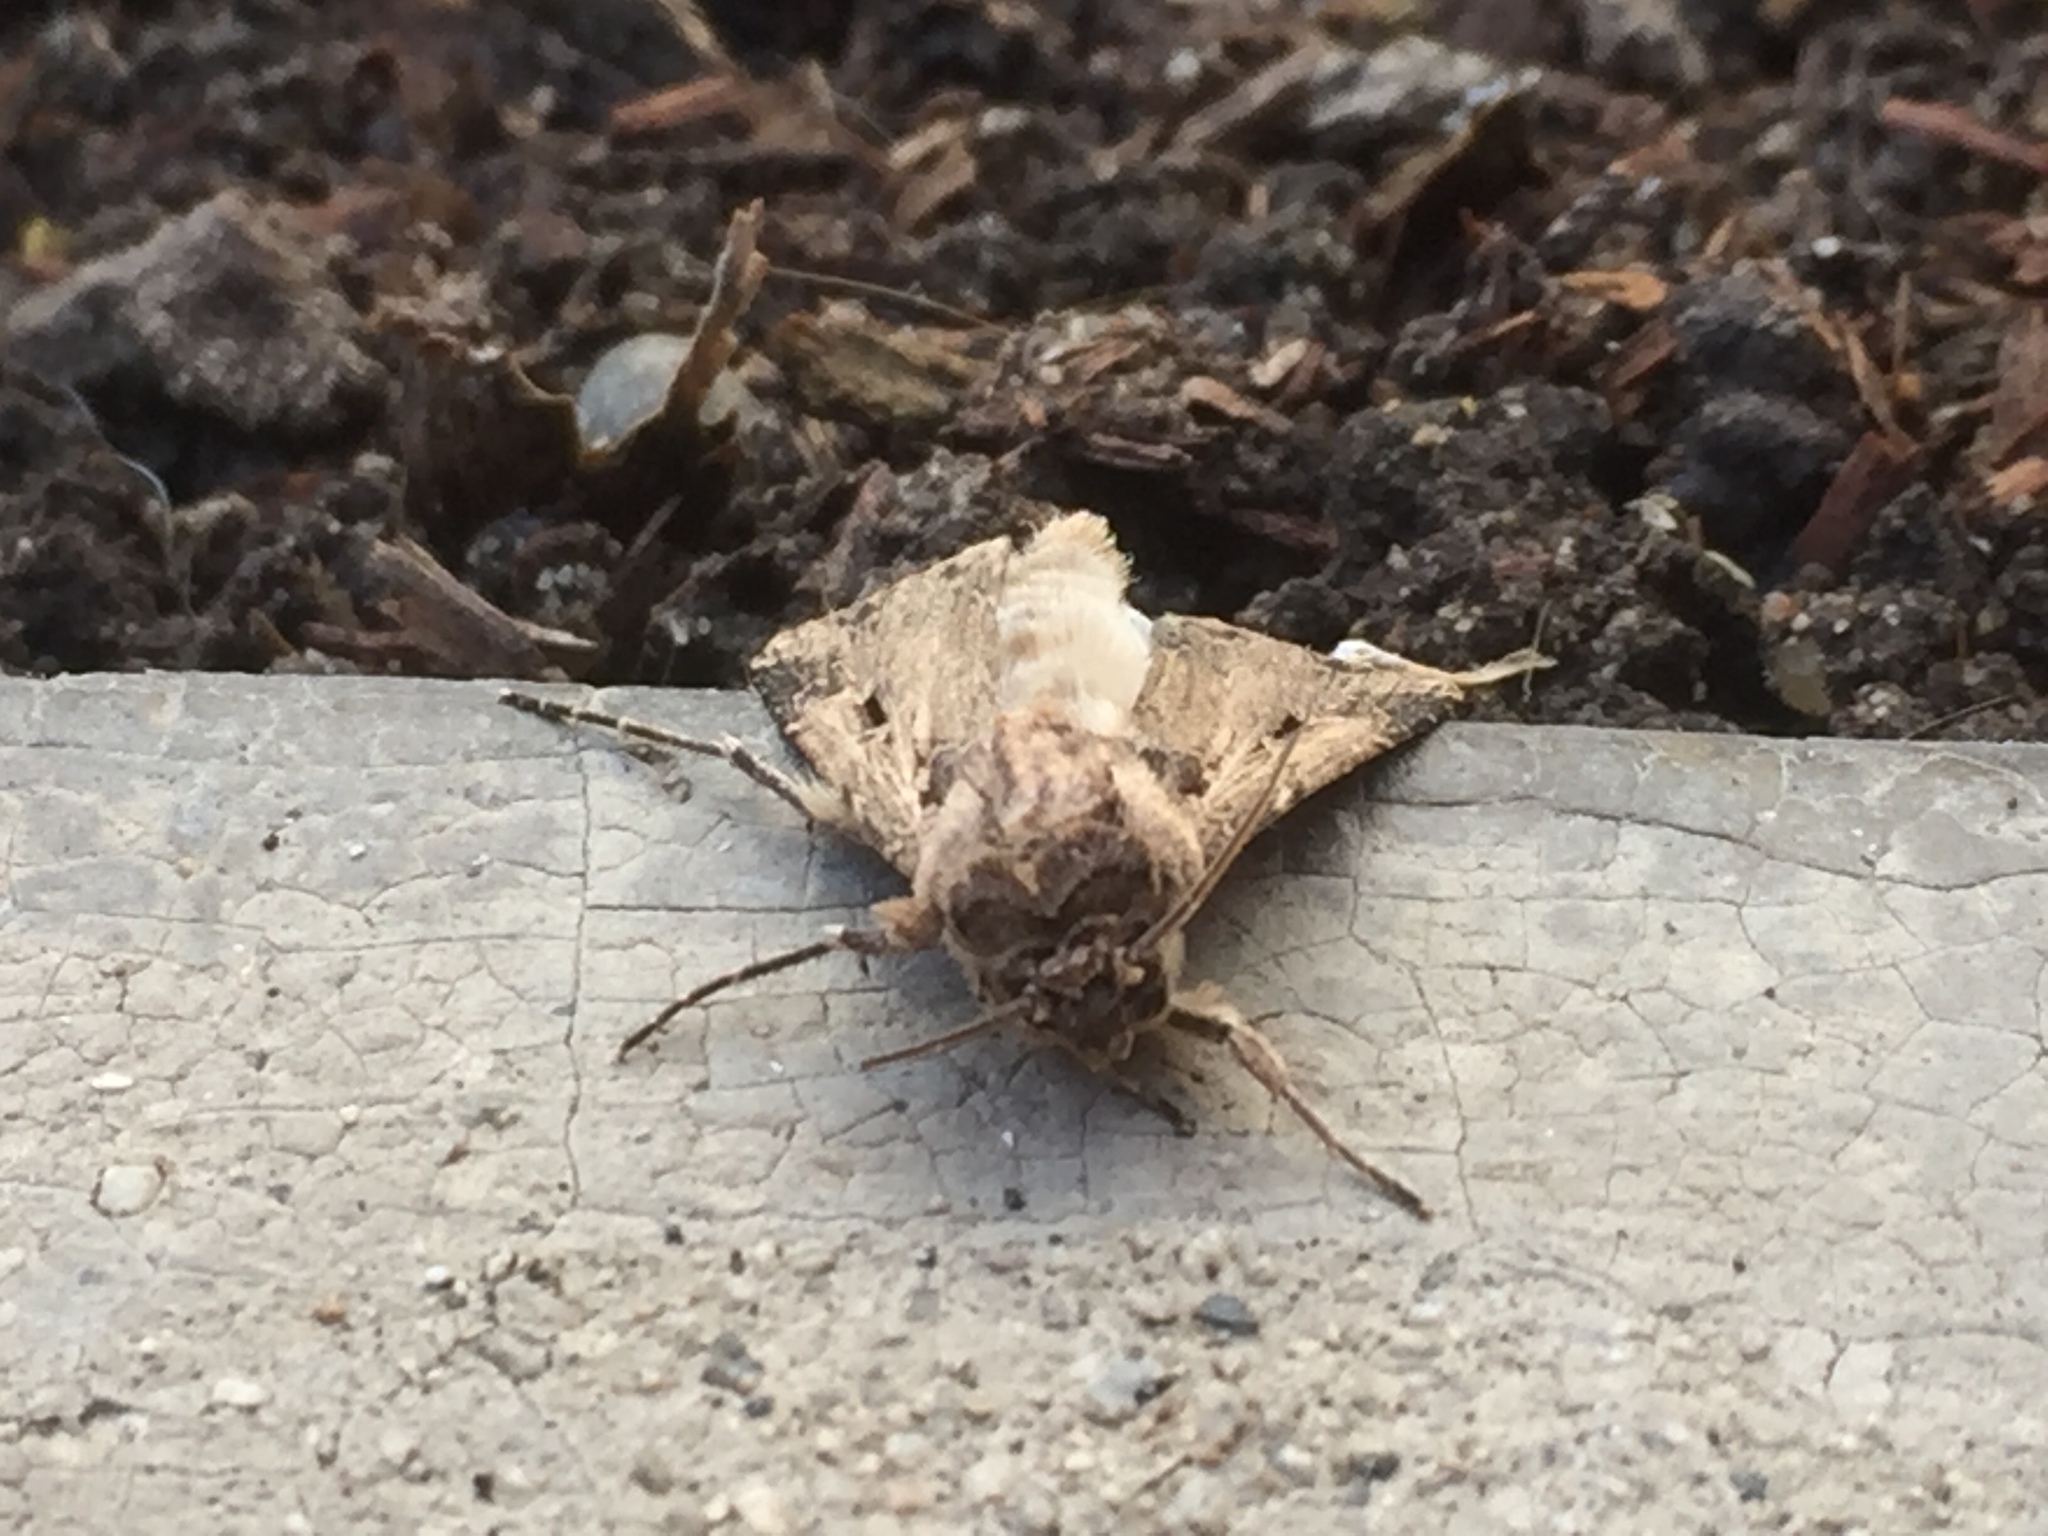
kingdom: Animalia
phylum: Arthropoda
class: Insecta
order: Lepidoptera
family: Noctuidae
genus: Feltia
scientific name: Feltia subterranea
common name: Granulate cutworm
